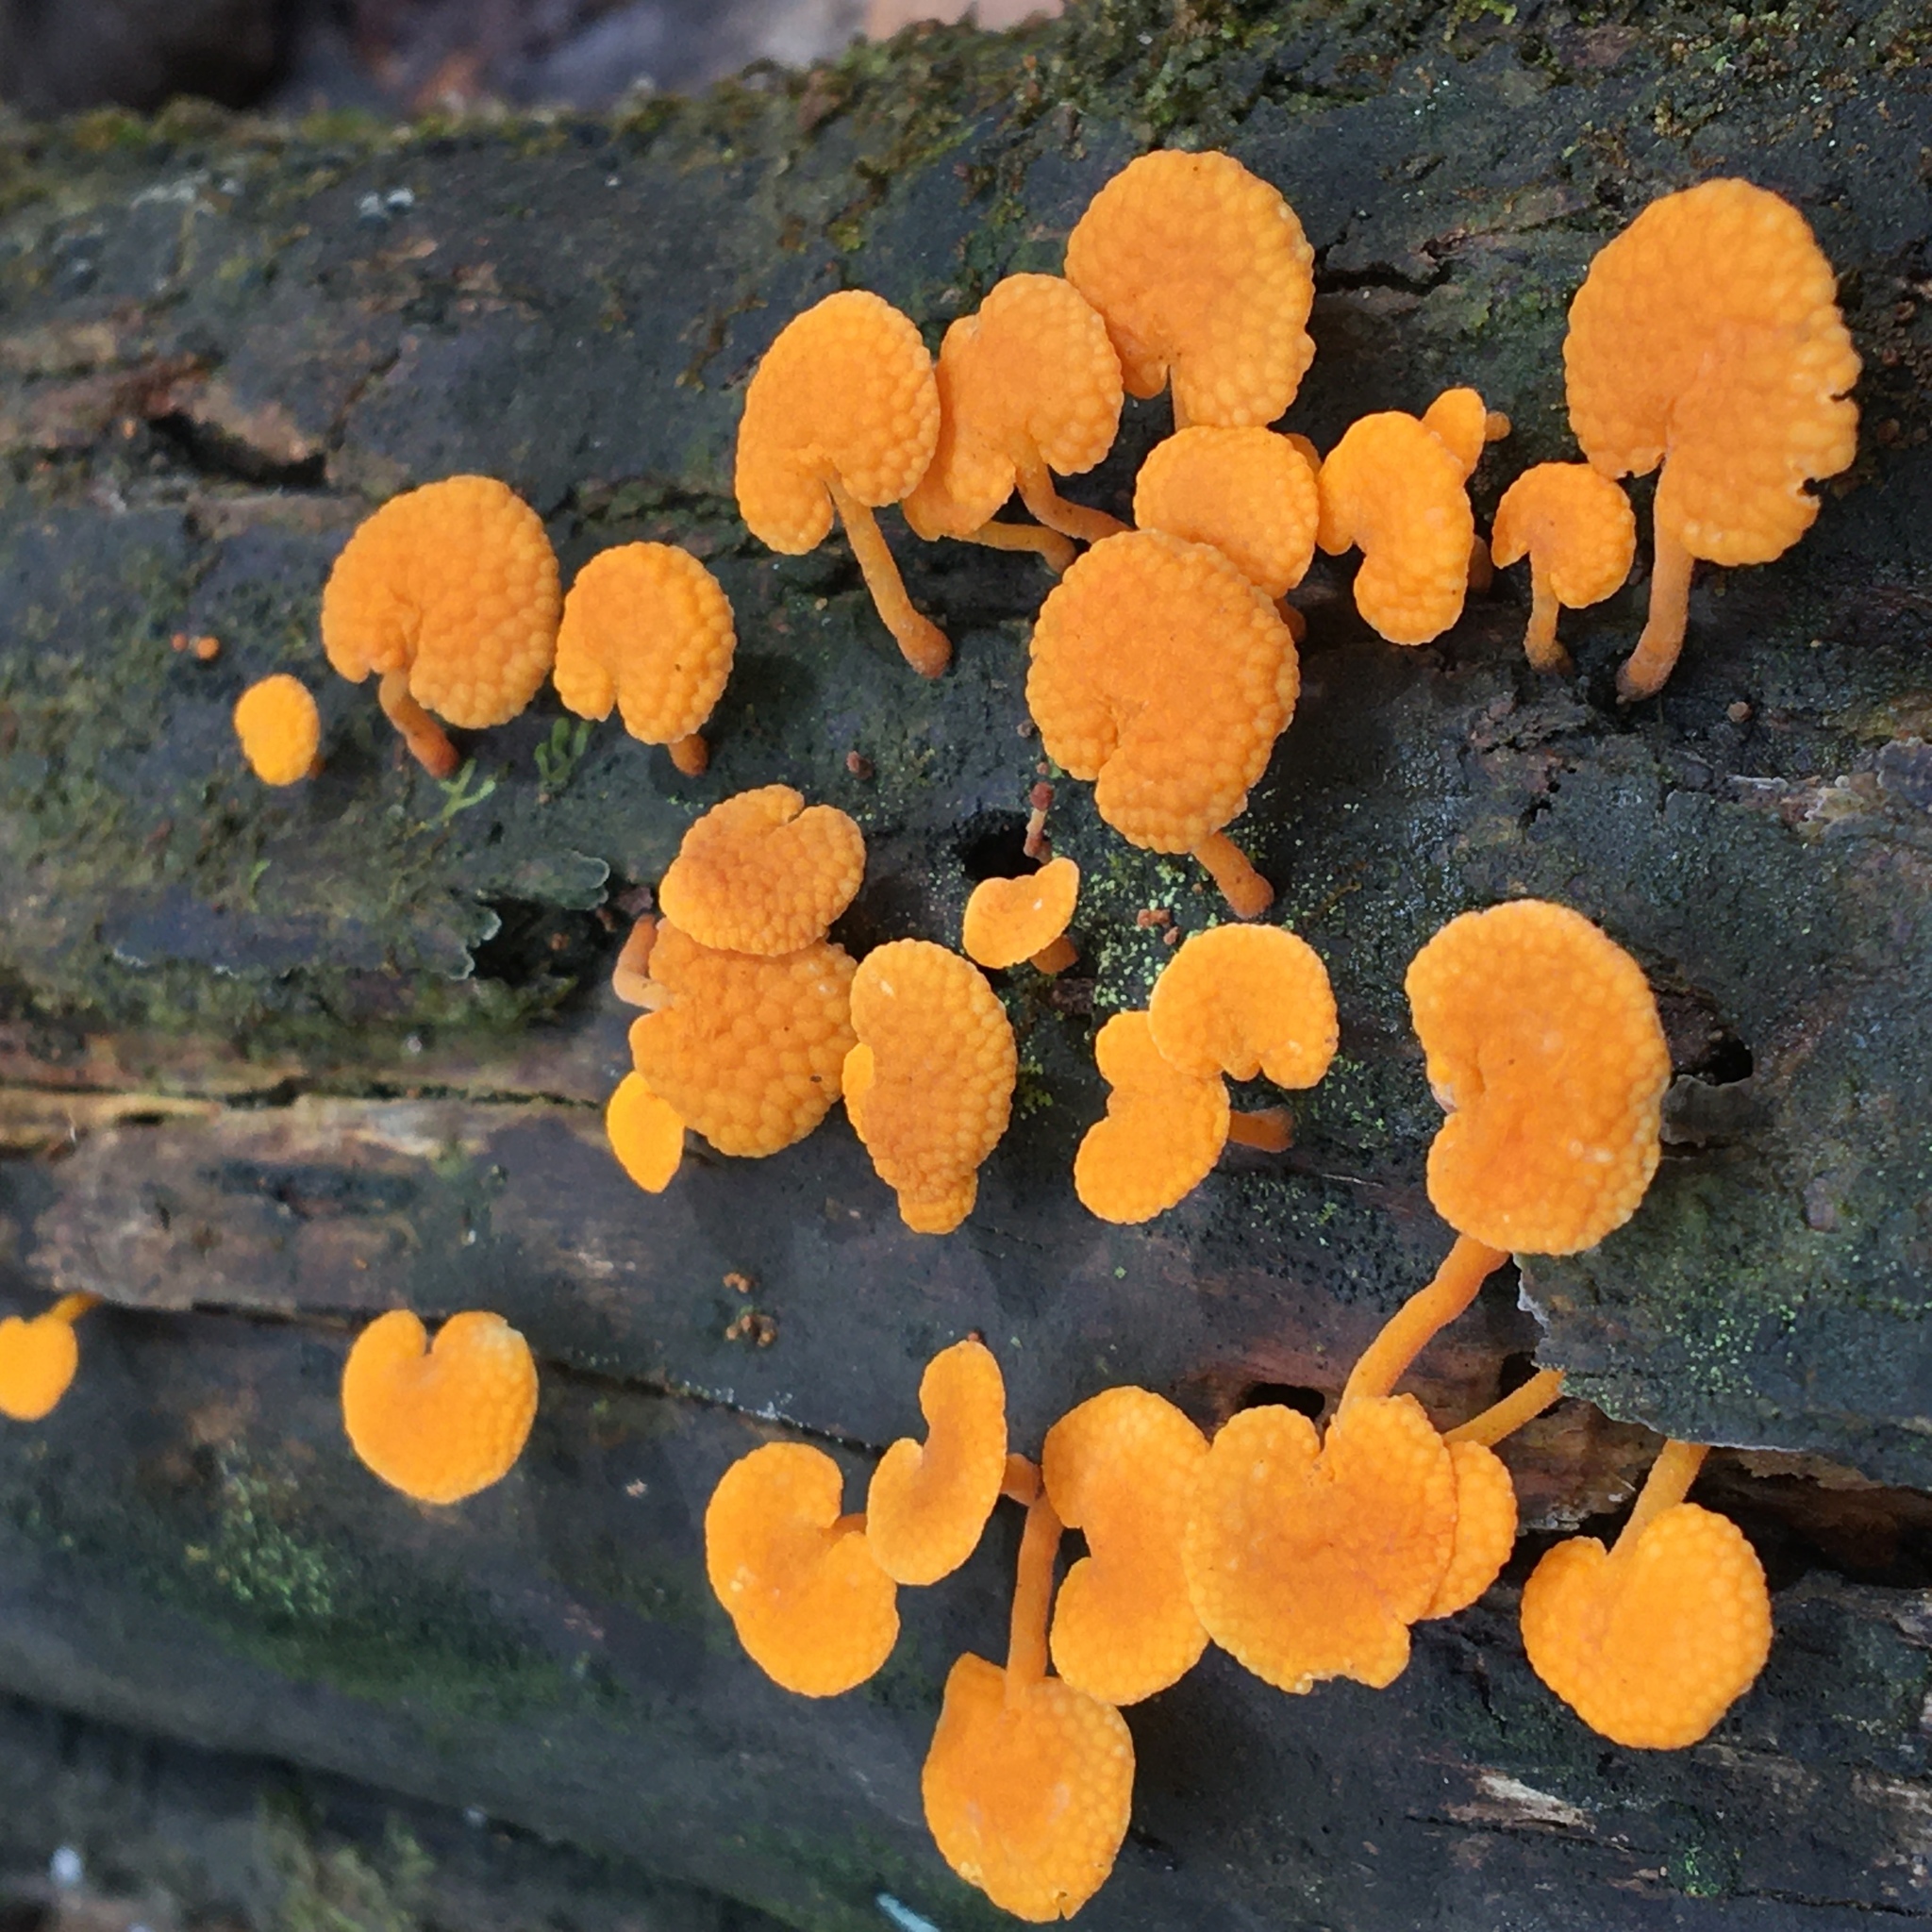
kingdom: Fungi
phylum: Basidiomycota
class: Agaricomycetes
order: Agaricales
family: Mycenaceae
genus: Favolaschia
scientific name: Favolaschia claudopus
